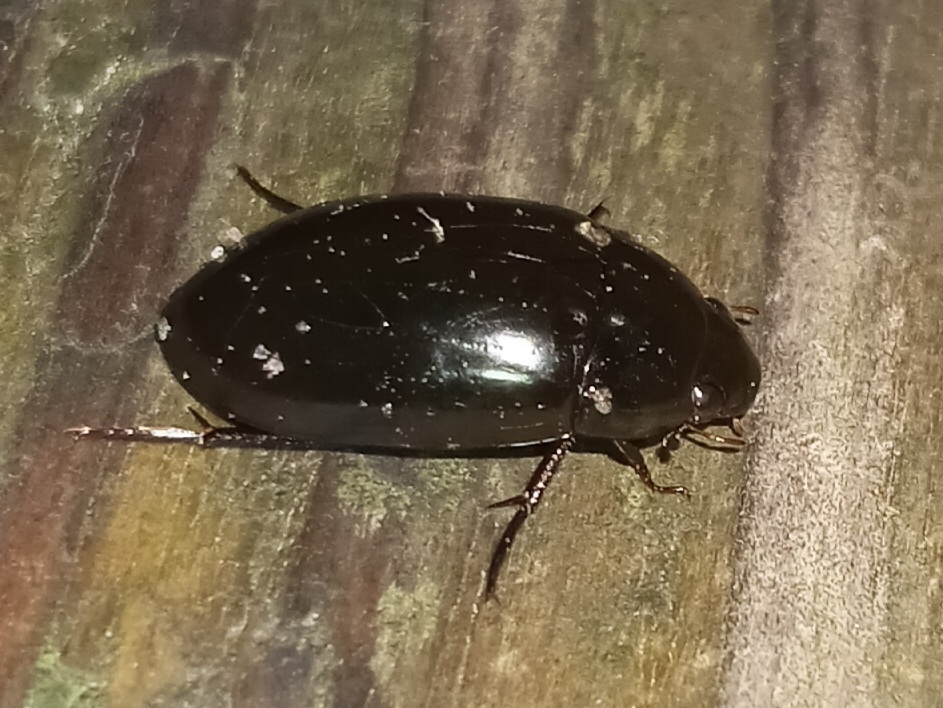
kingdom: Animalia
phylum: Arthropoda
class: Insecta
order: Coleoptera
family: Hydrophilidae
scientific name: Hydrophilidae
